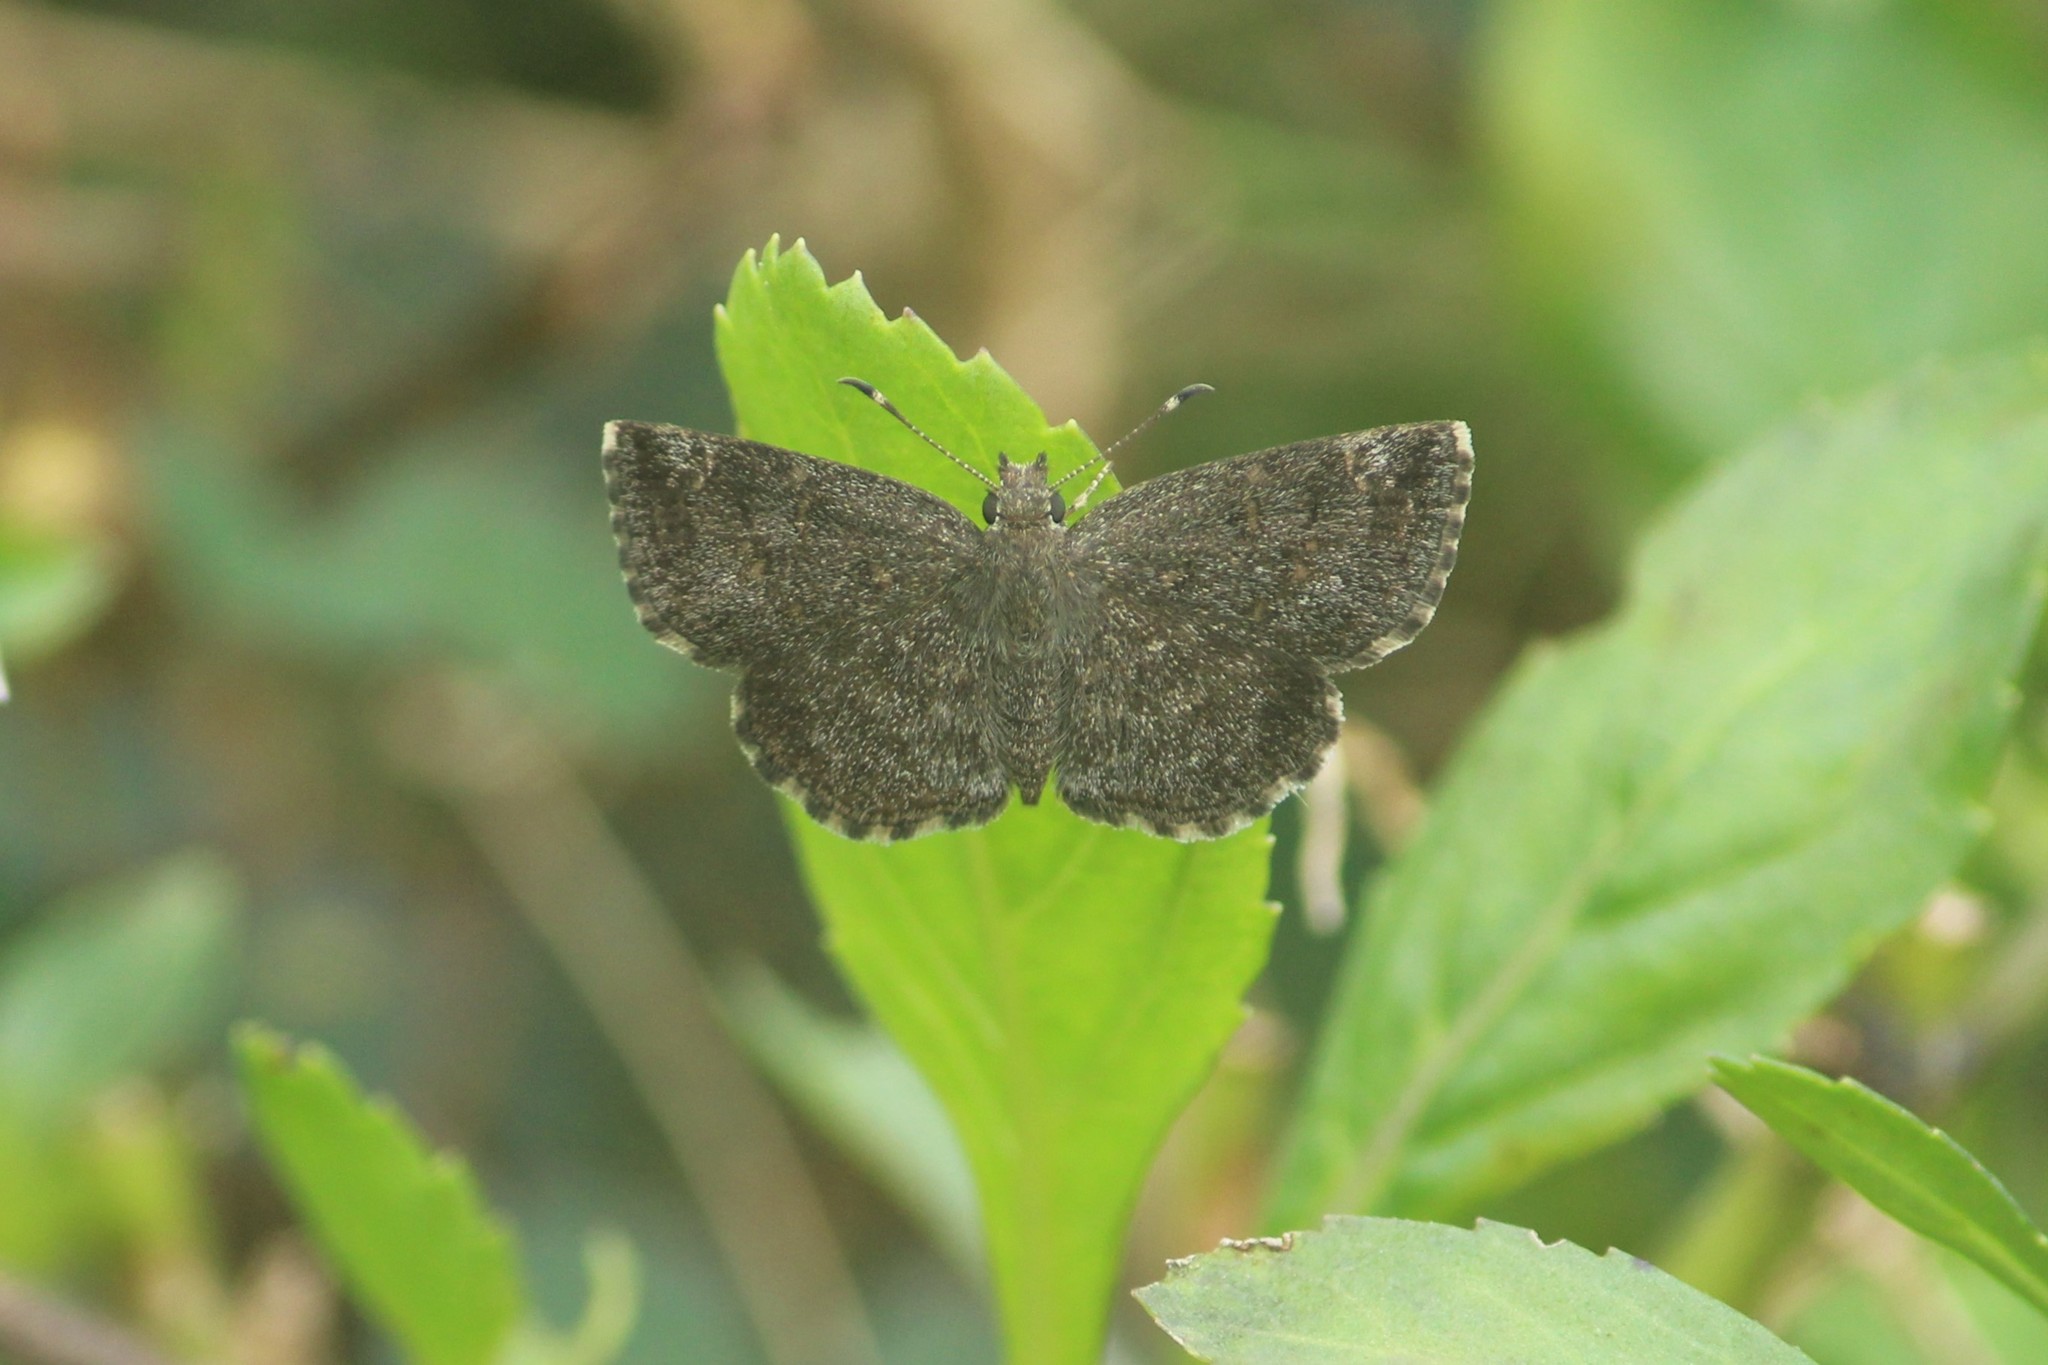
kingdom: Animalia
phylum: Arthropoda
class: Insecta
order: Lepidoptera
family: Hesperiidae
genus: Sarangesa
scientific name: Sarangesa purendra
